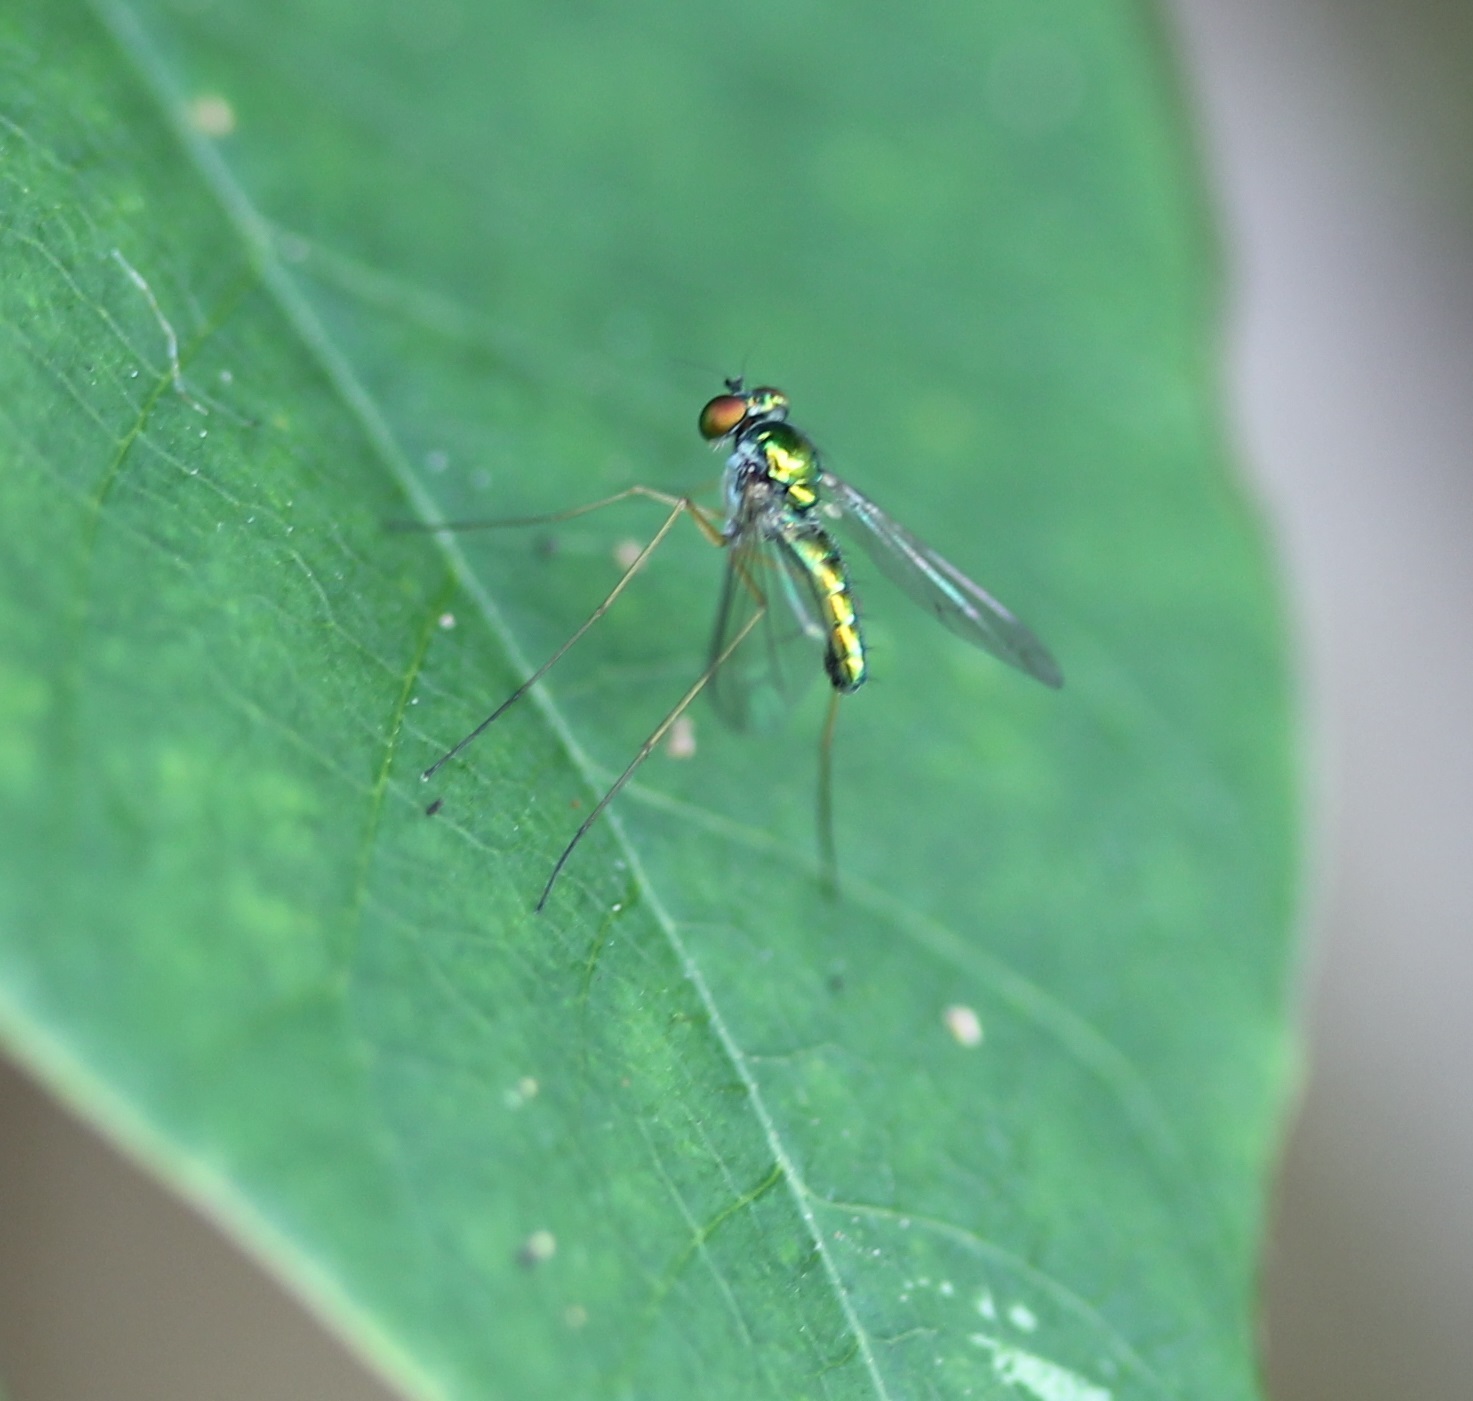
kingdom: Animalia
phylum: Arthropoda
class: Insecta
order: Diptera
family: Dolichopodidae
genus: Amblypsilopus
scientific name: Amblypsilopus scintillans
